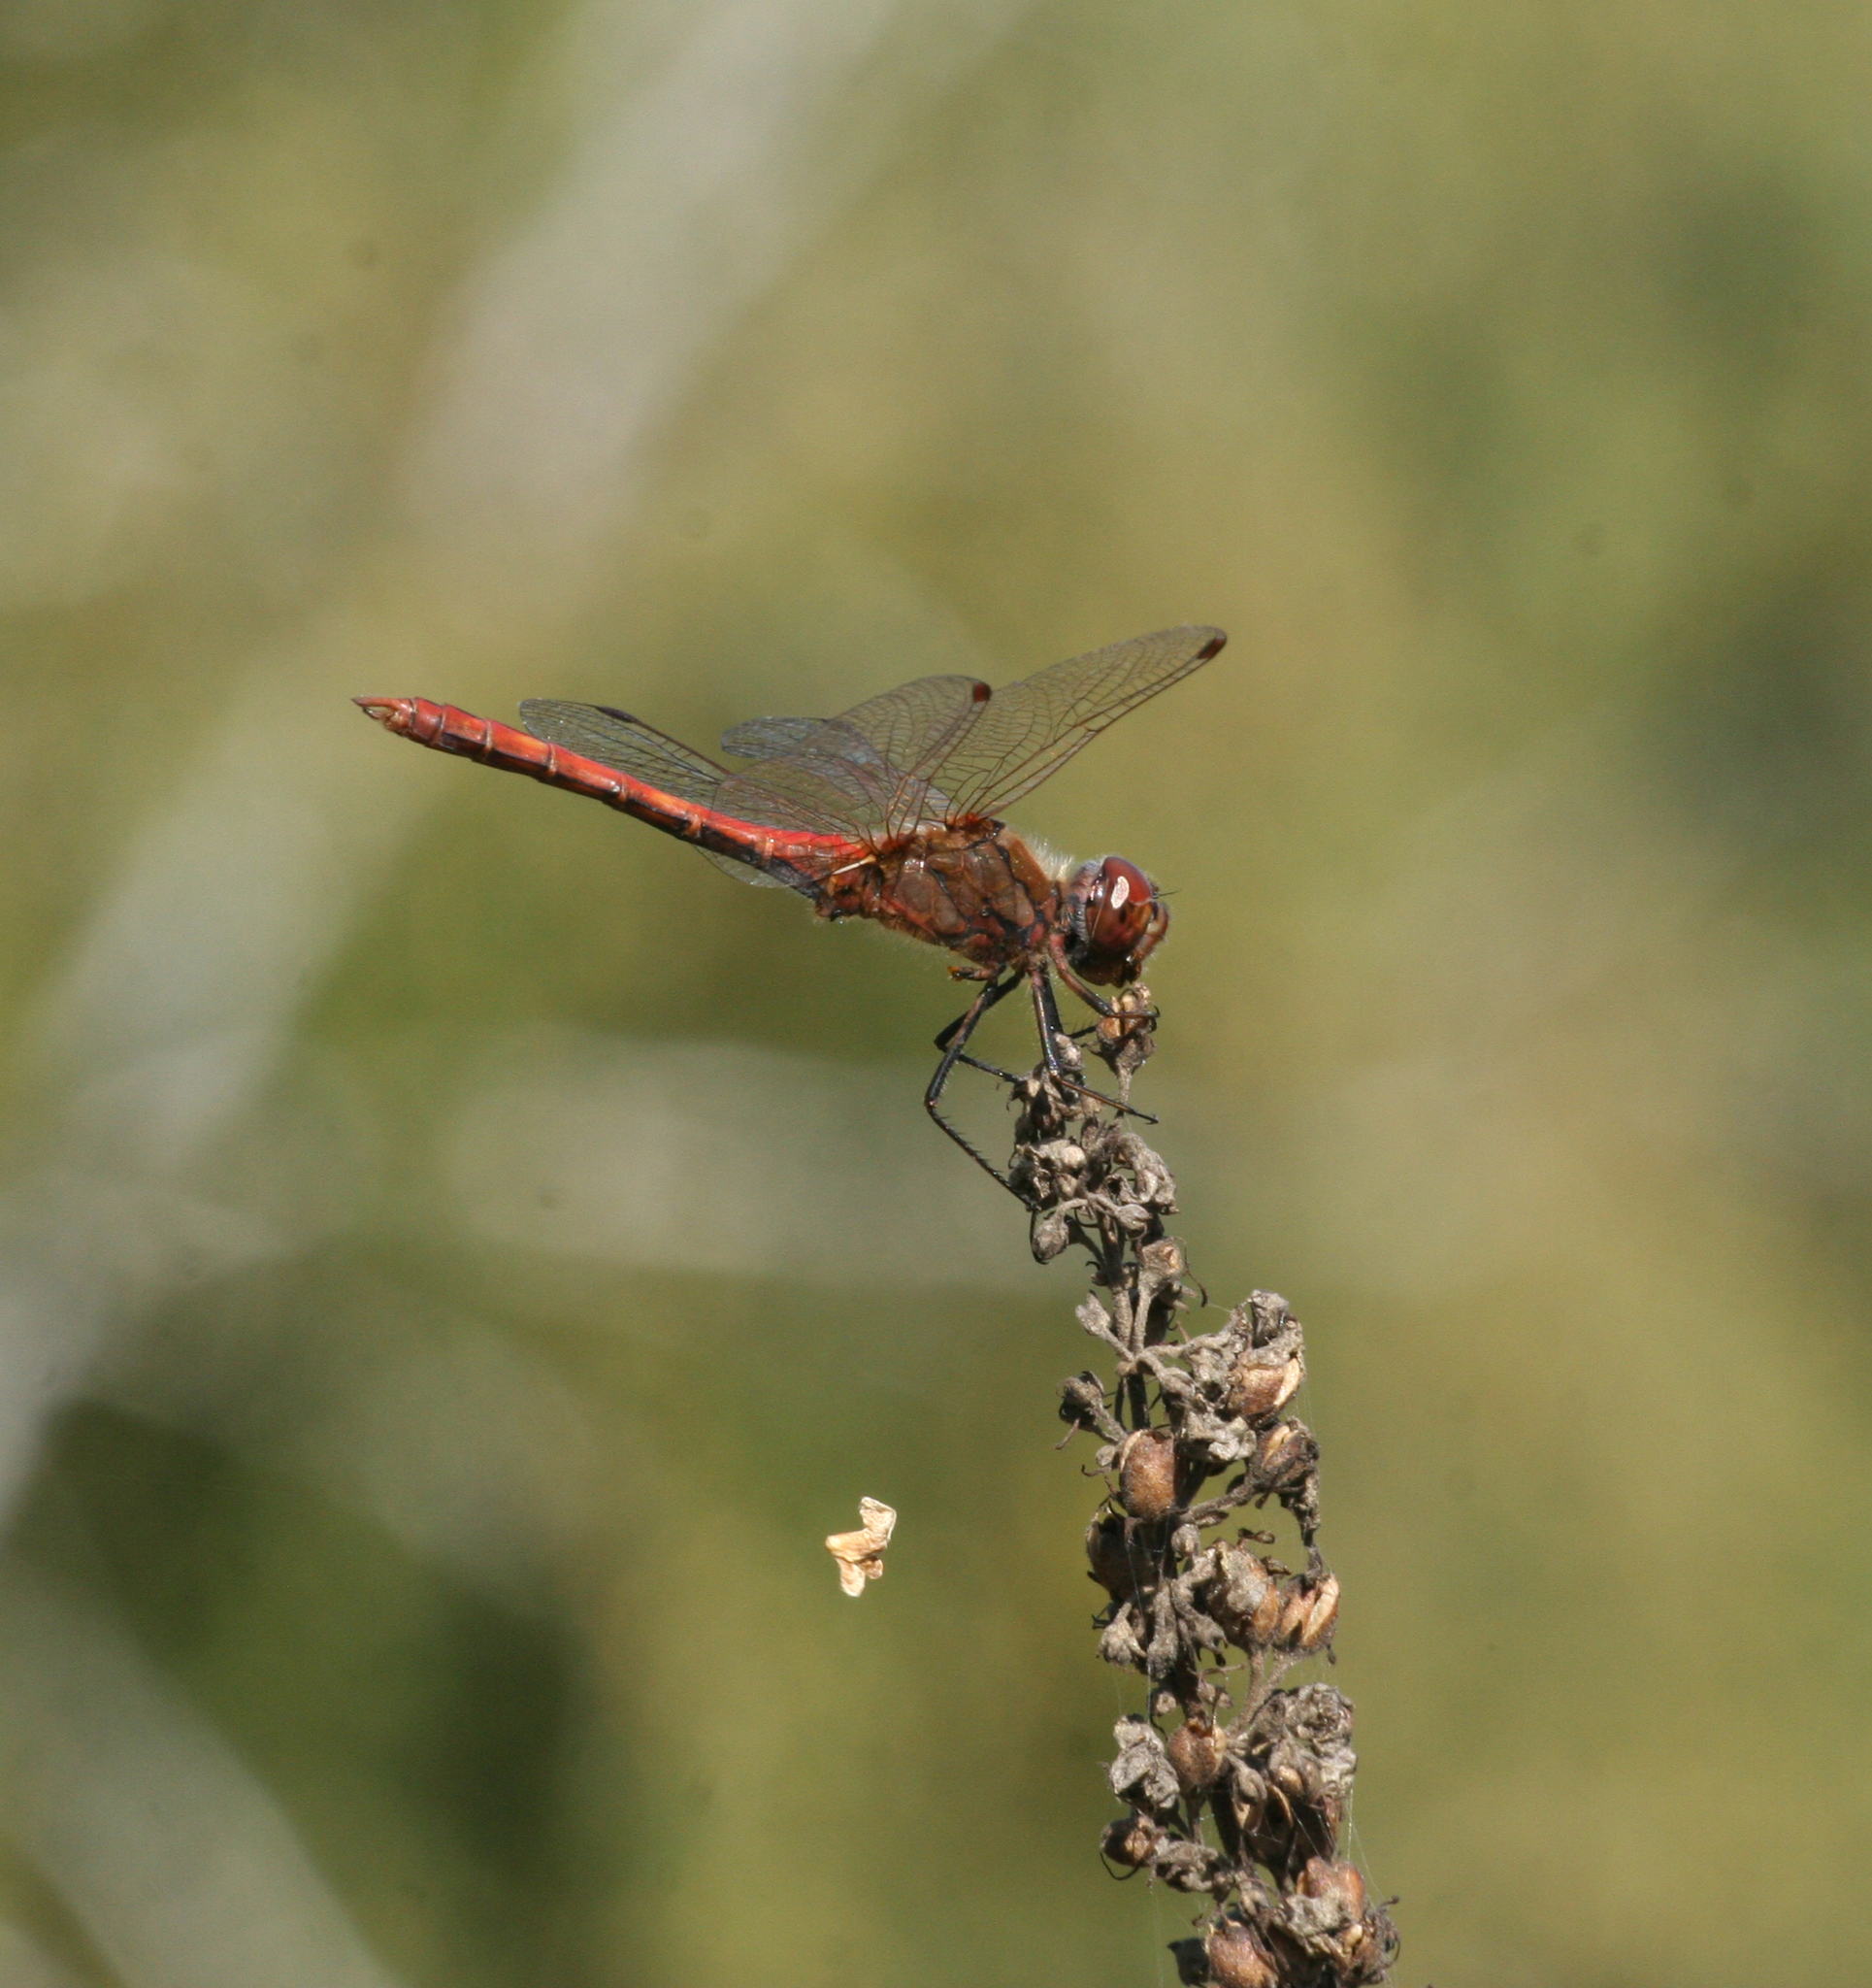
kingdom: Animalia
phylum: Arthropoda
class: Insecta
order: Odonata
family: Libellulidae
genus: Sympetrum
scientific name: Sympetrum vulgatum
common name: Vagrant darter
